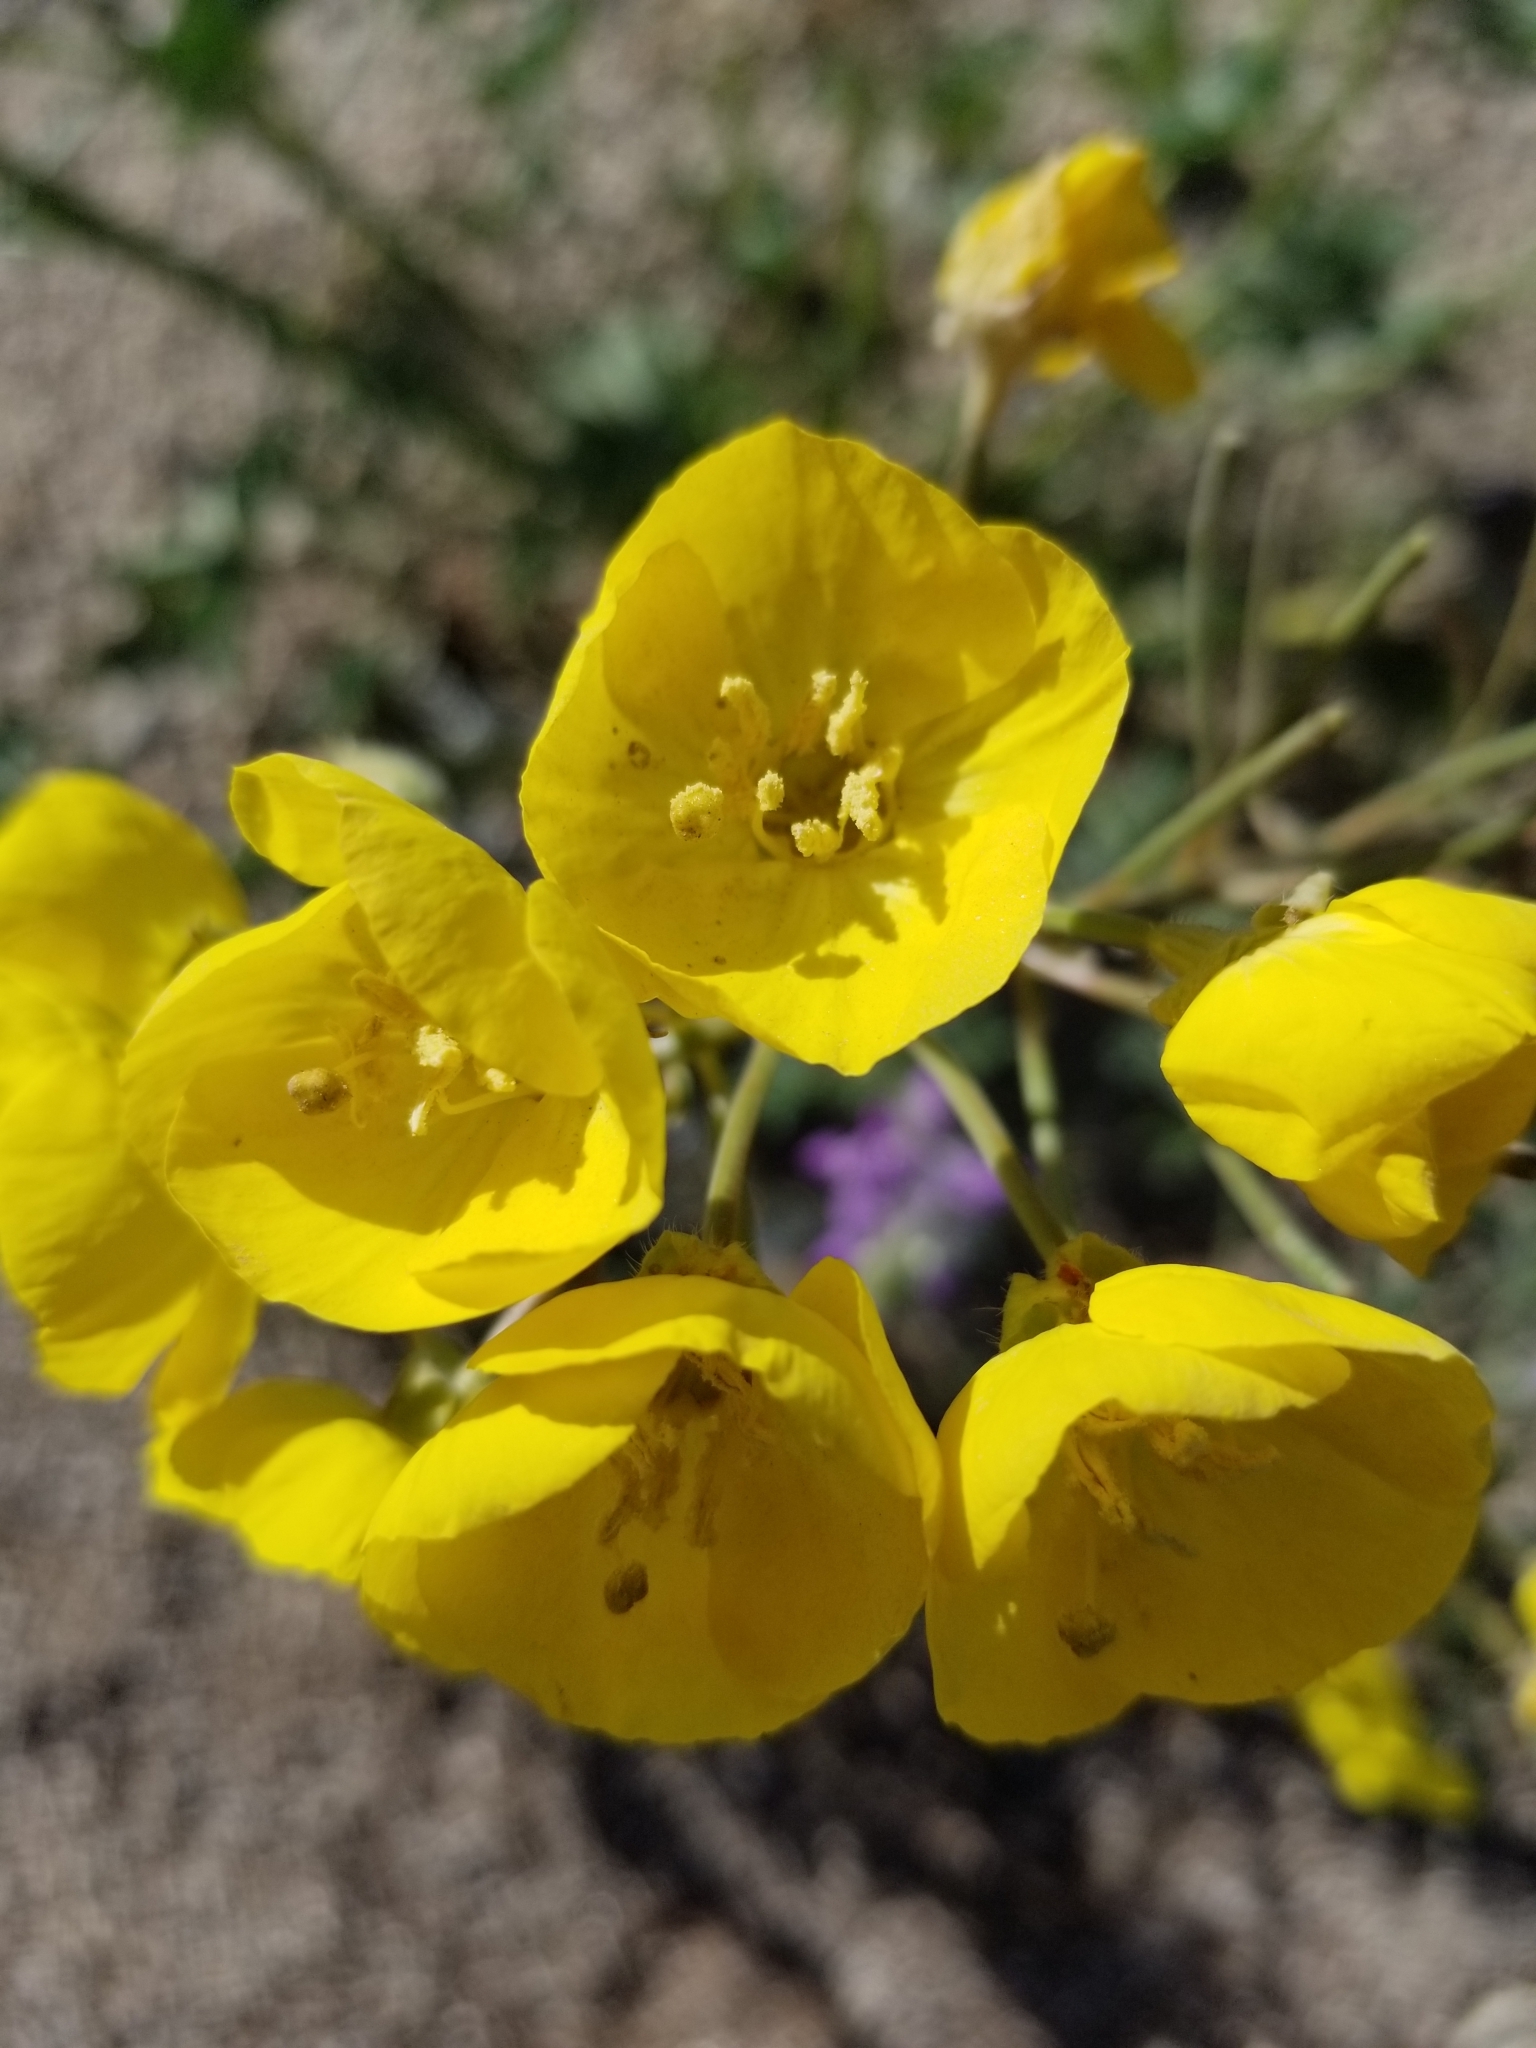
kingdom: Plantae
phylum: Tracheophyta
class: Magnoliopsida
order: Myrtales
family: Onagraceae
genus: Chylismia
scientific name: Chylismia brevipes
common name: Yellow cups
